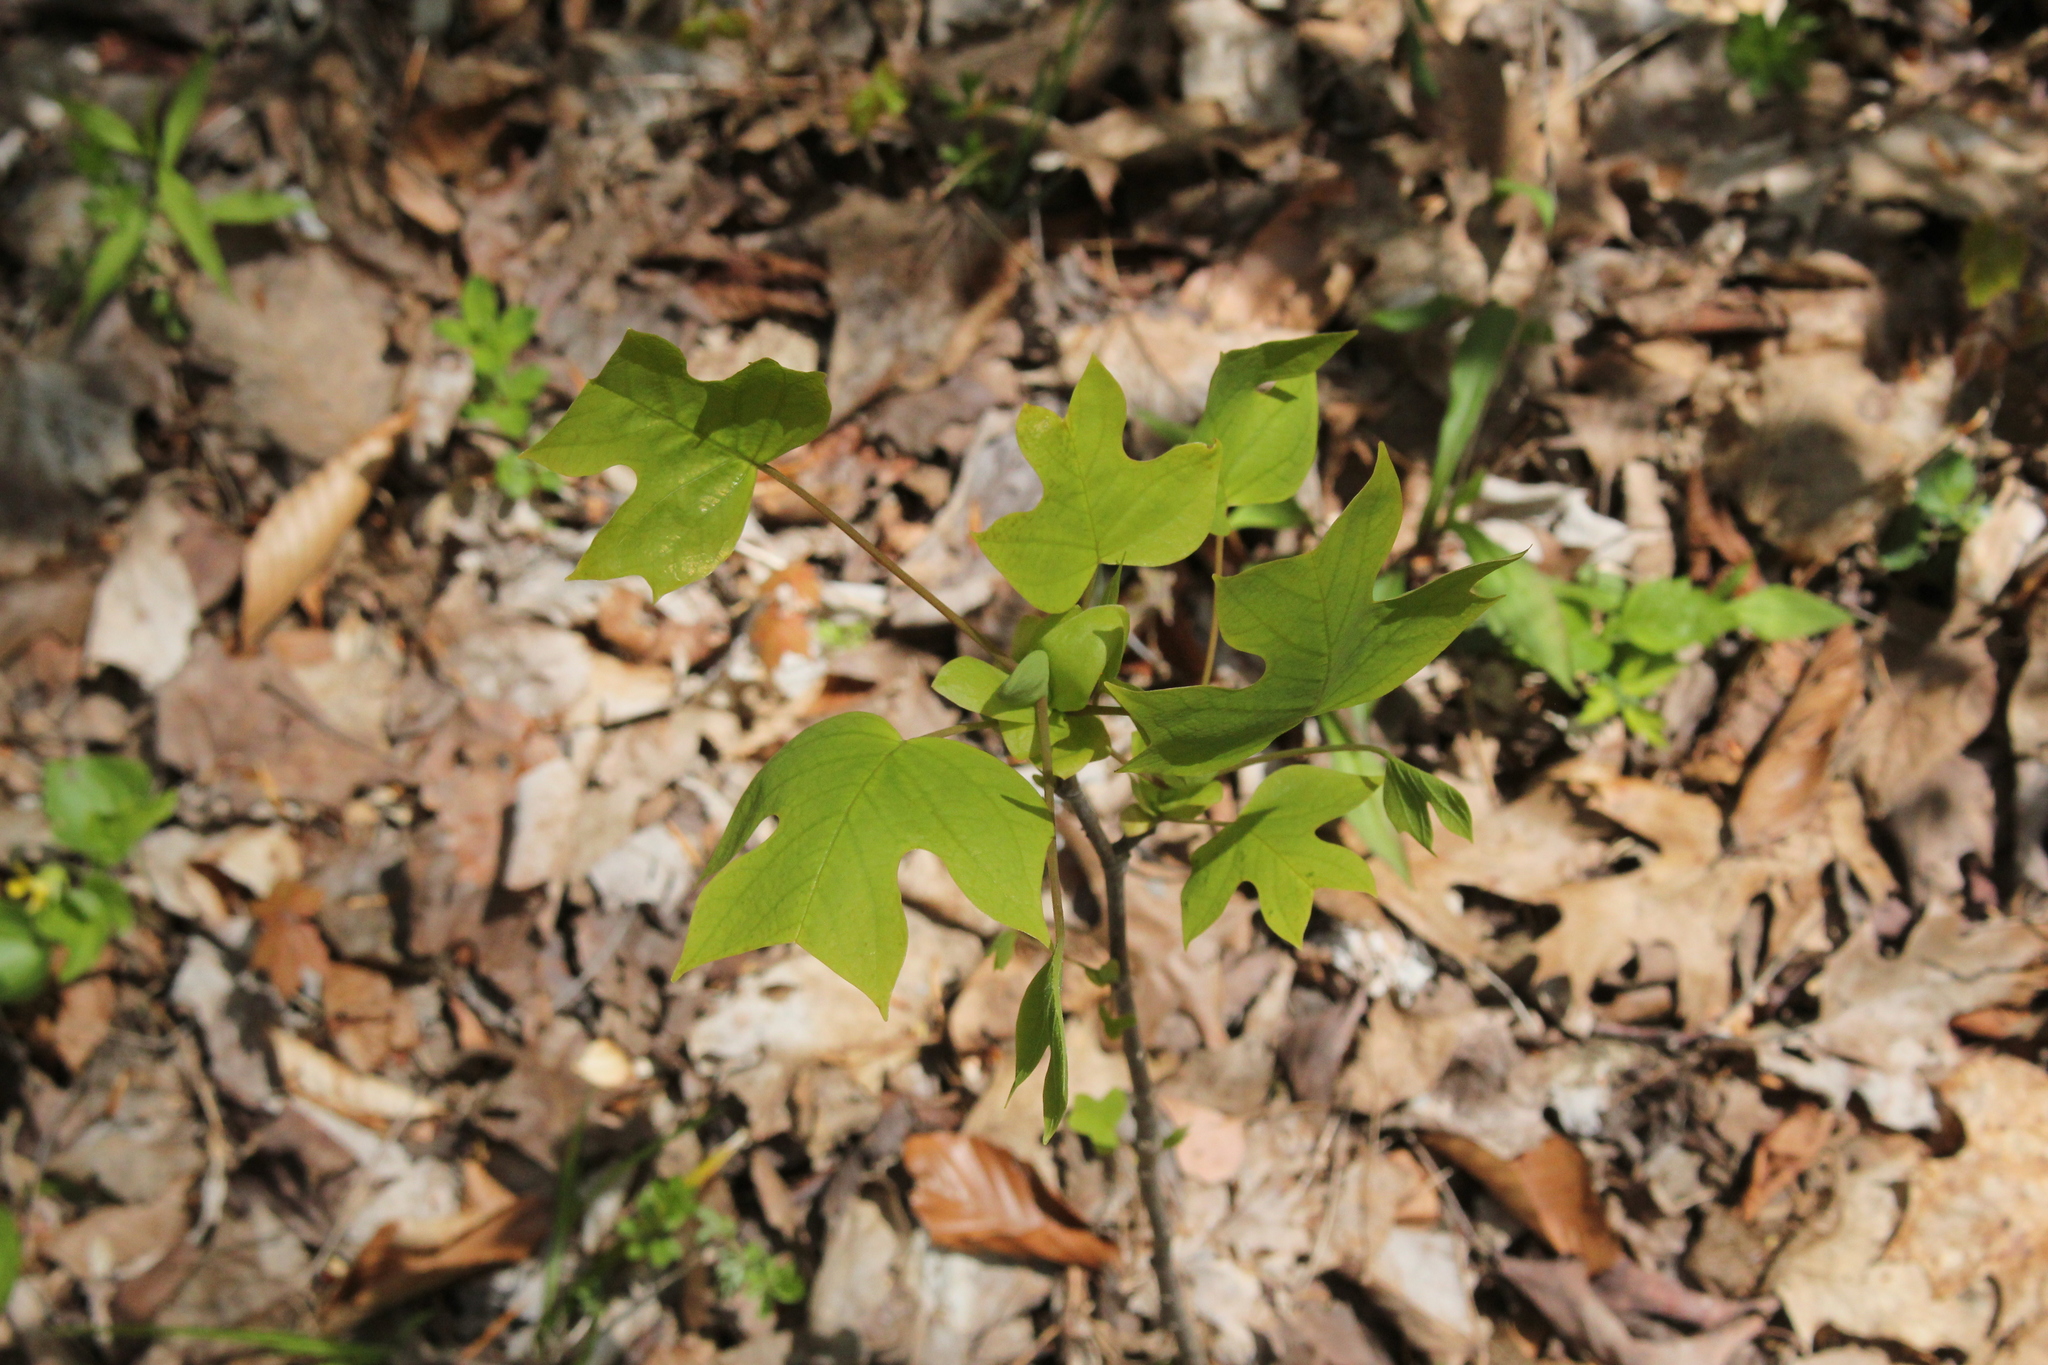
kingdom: Plantae
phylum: Tracheophyta
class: Magnoliopsida
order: Magnoliales
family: Magnoliaceae
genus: Liriodendron
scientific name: Liriodendron tulipifera
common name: Tulip tree
